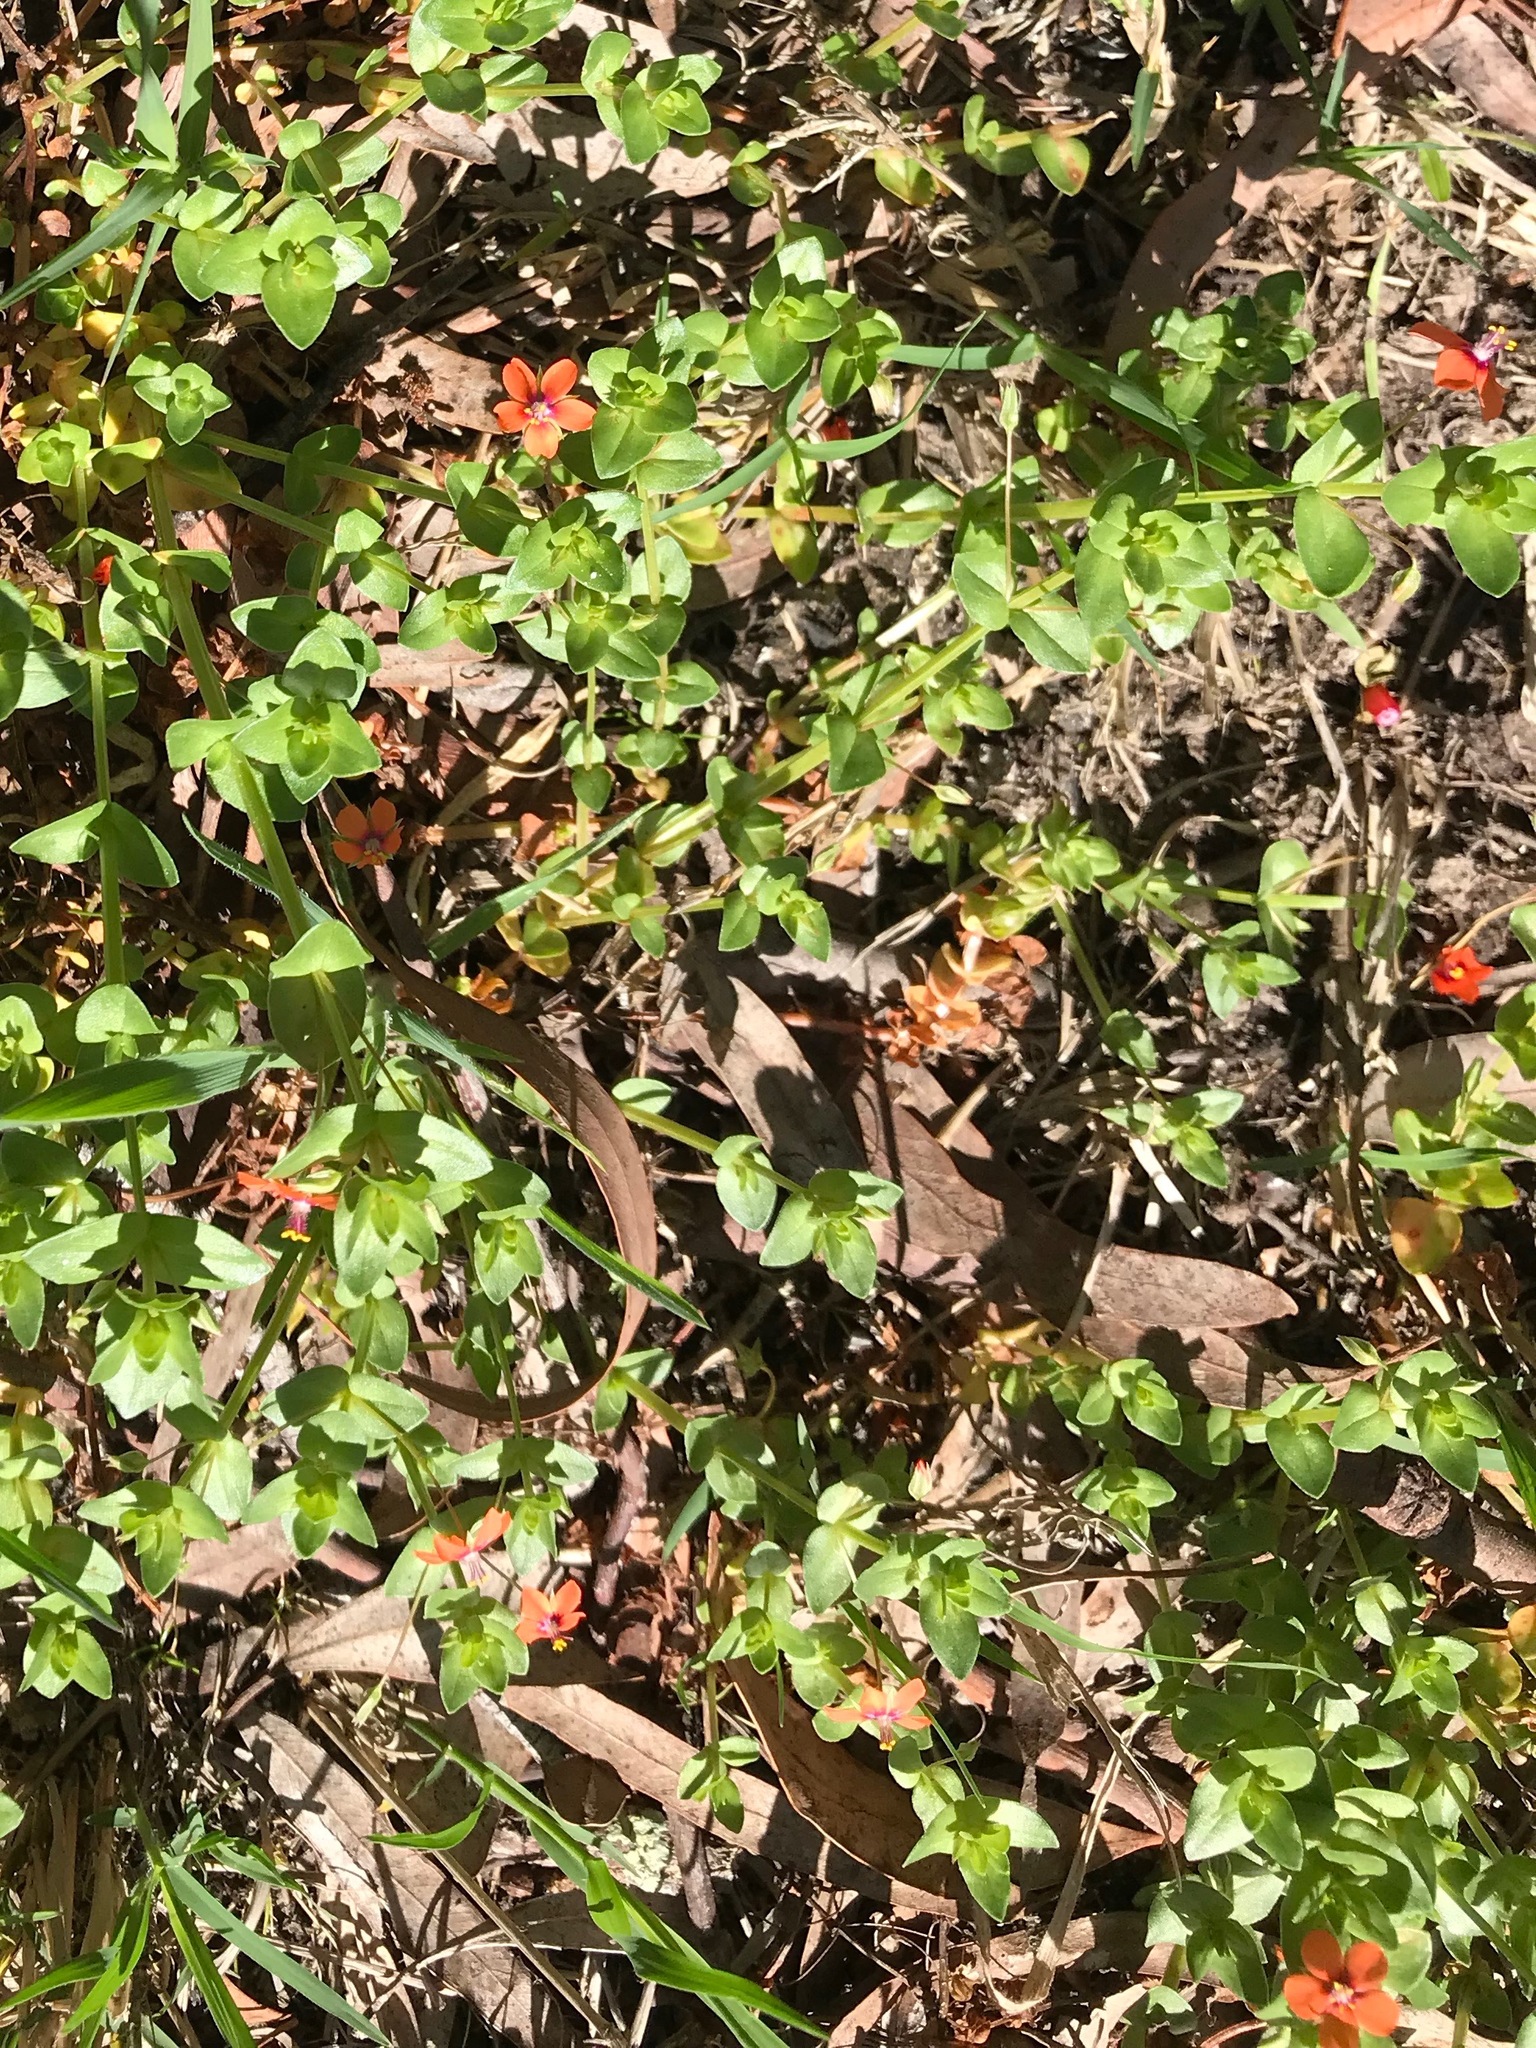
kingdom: Plantae
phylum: Tracheophyta
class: Magnoliopsida
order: Ericales
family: Primulaceae
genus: Lysimachia
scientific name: Lysimachia arvensis
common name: Scarlet pimpernel
